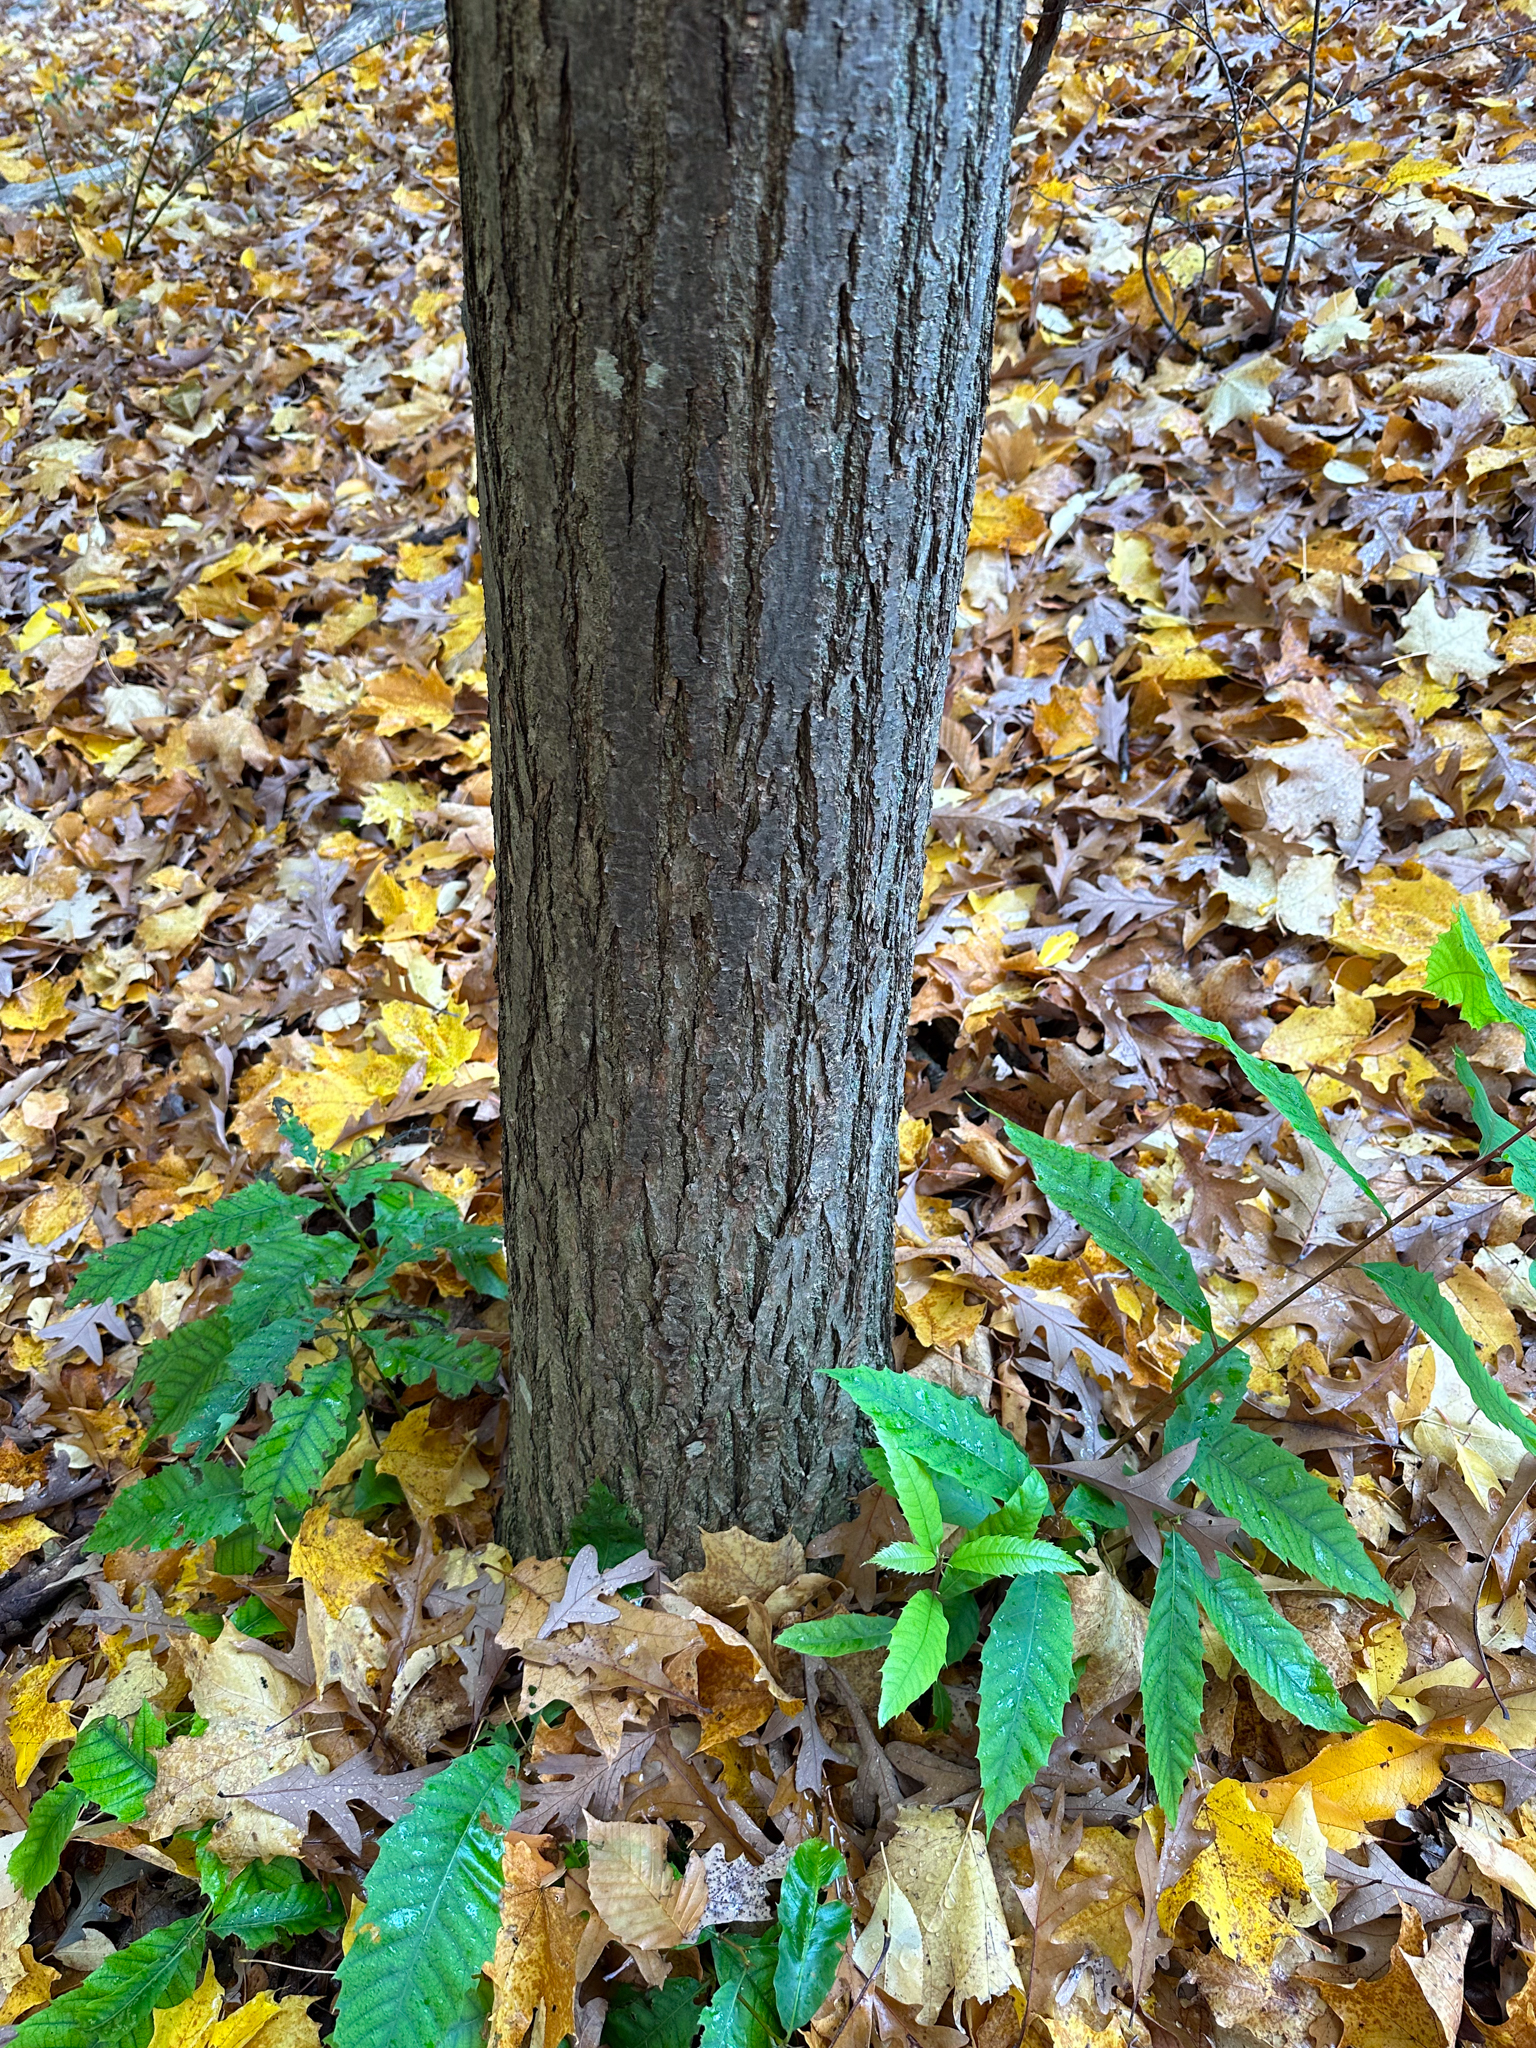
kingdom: Plantae
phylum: Tracheophyta
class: Magnoliopsida
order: Fagales
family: Fagaceae
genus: Castanea
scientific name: Castanea dentata
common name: American chestnut
